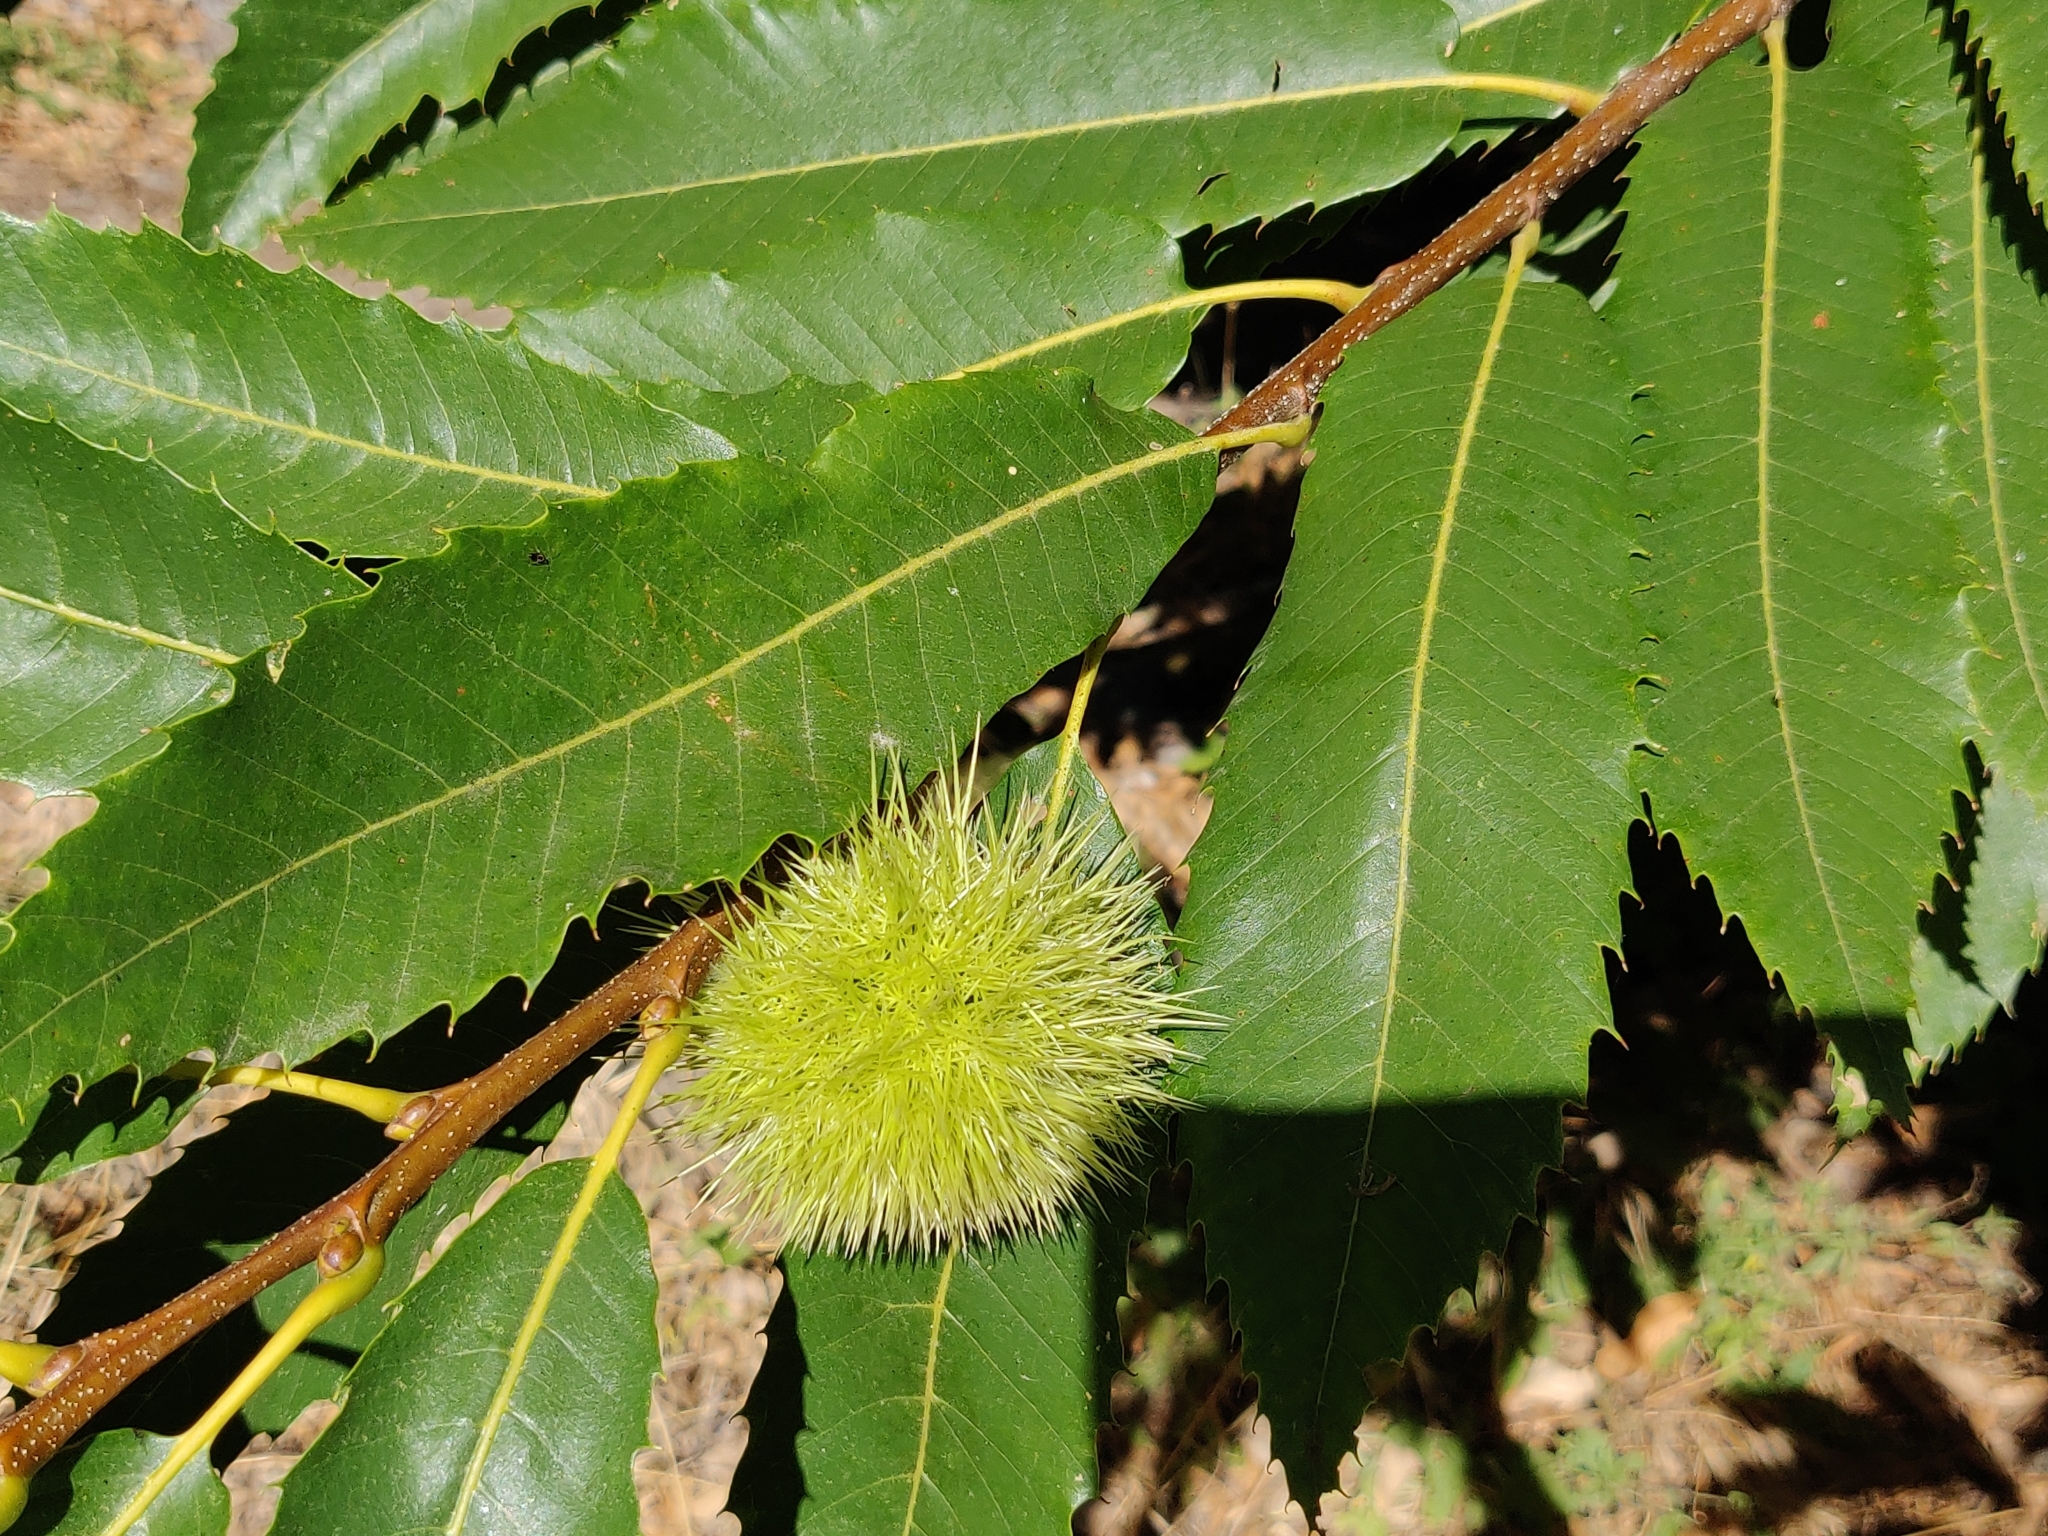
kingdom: Plantae
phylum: Tracheophyta
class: Magnoliopsida
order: Fagales
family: Fagaceae
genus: Castanea
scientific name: Castanea sativa
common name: Sweet chestnut
